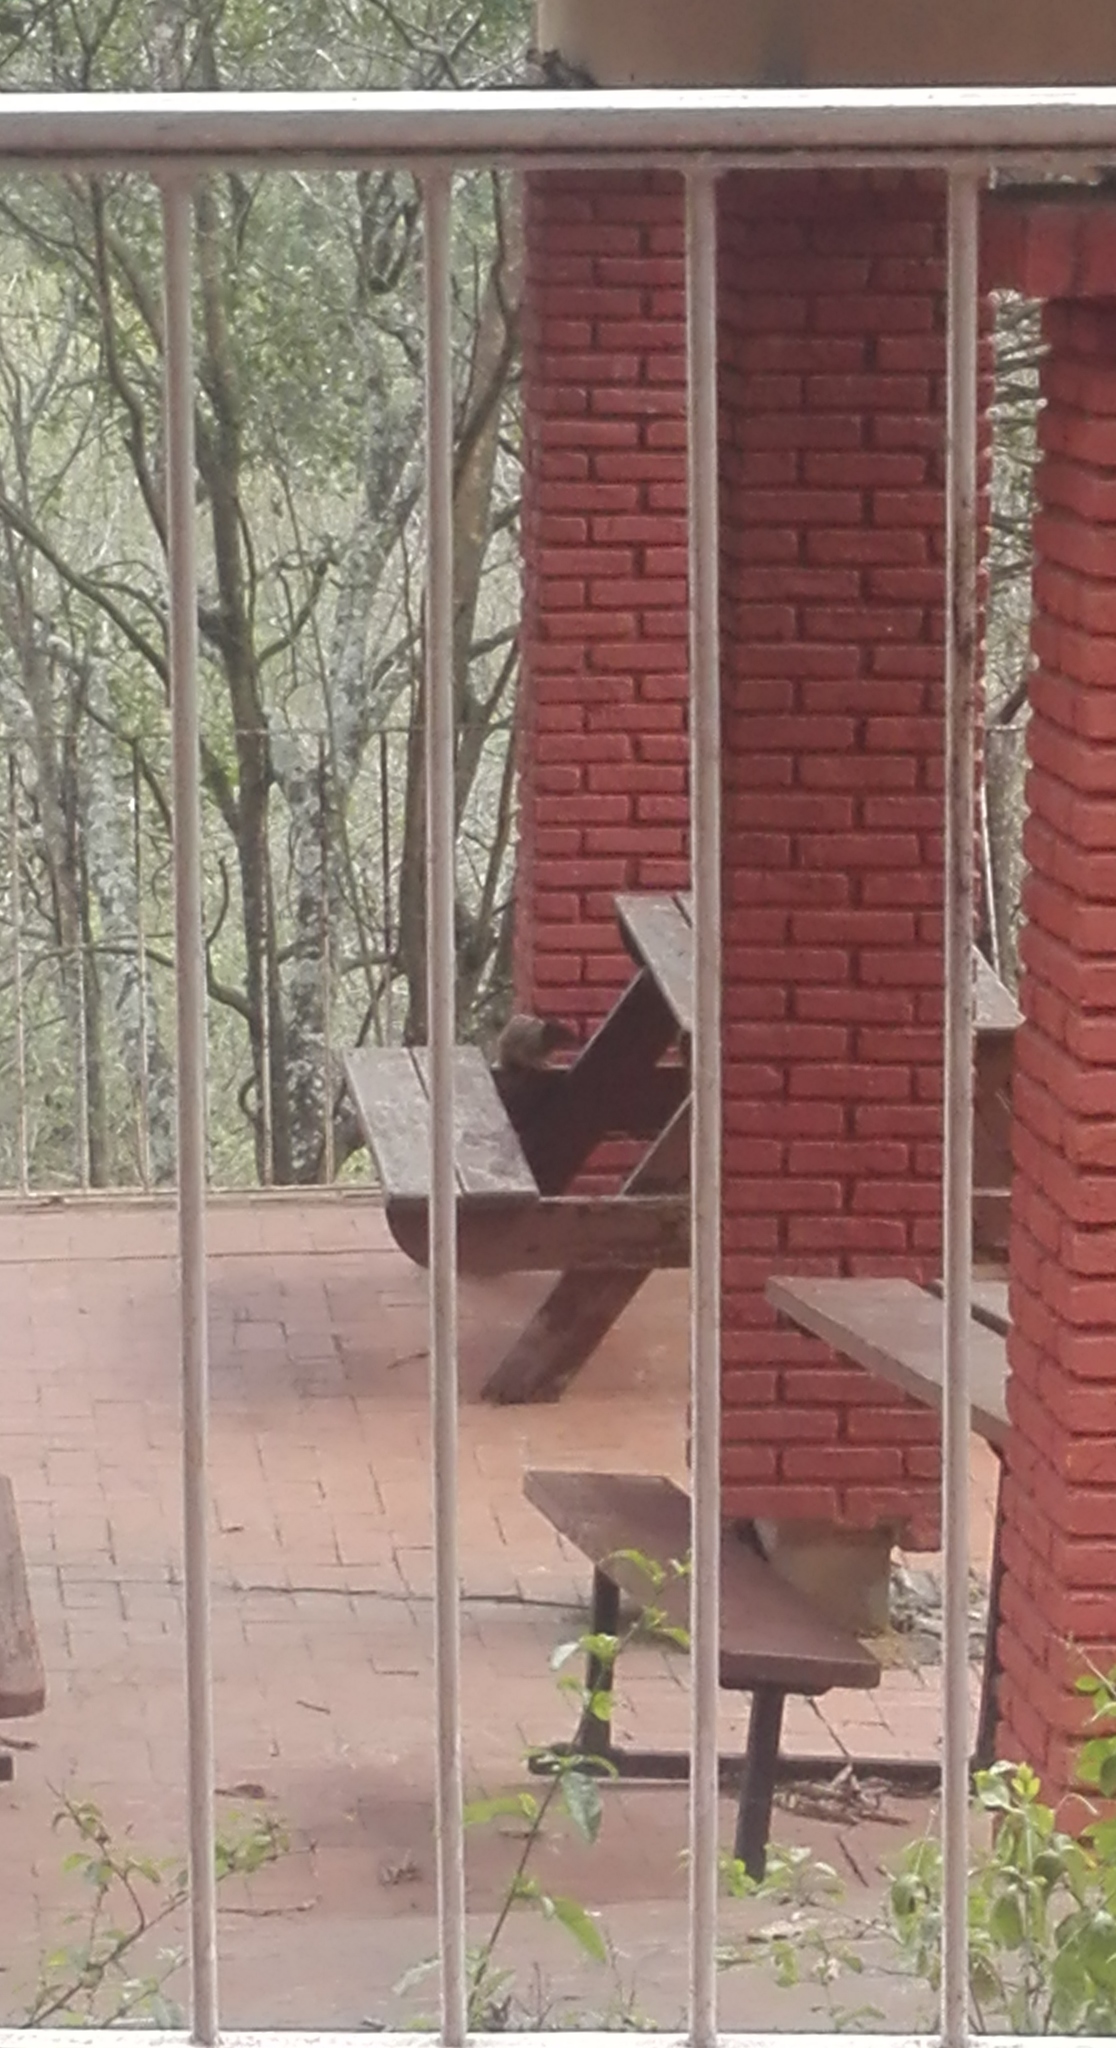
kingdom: Animalia
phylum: Chordata
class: Mammalia
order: Rodentia
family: Sciuridae
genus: Otospermophilus
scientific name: Otospermophilus variegatus
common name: Rock squirrel
